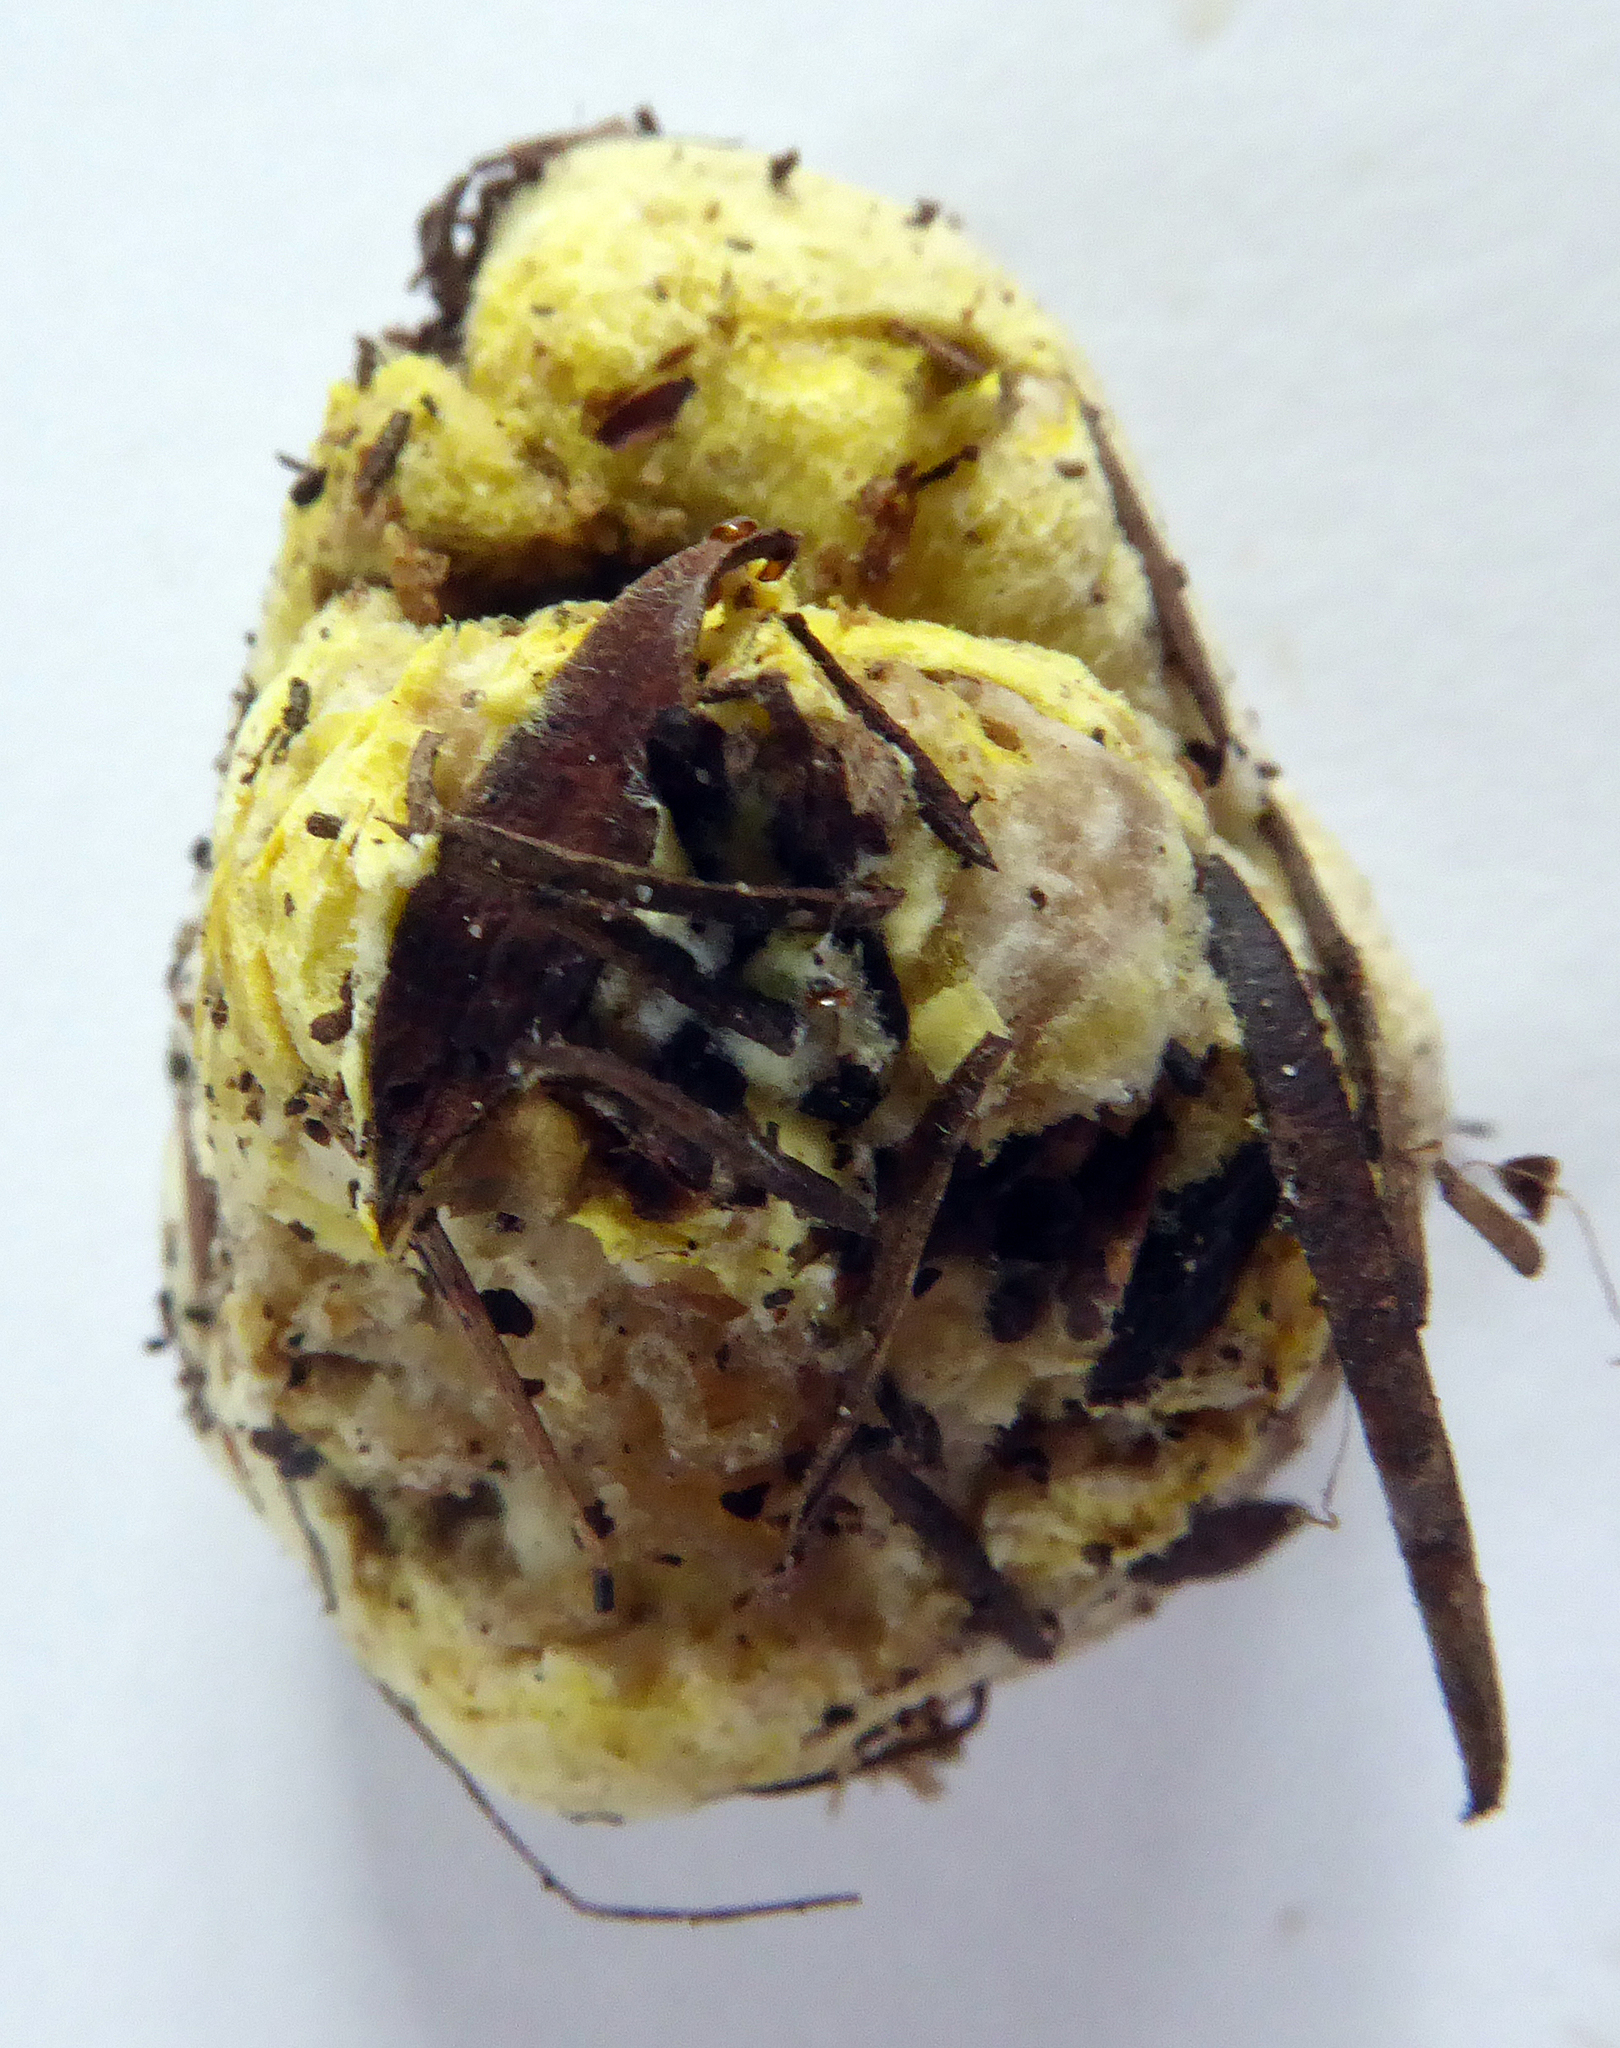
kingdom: Fungi
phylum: Basidiomycota
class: Agaricomycetes
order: Boletales
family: Boletaceae
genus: Boletus
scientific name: Boletus semigastroideus
